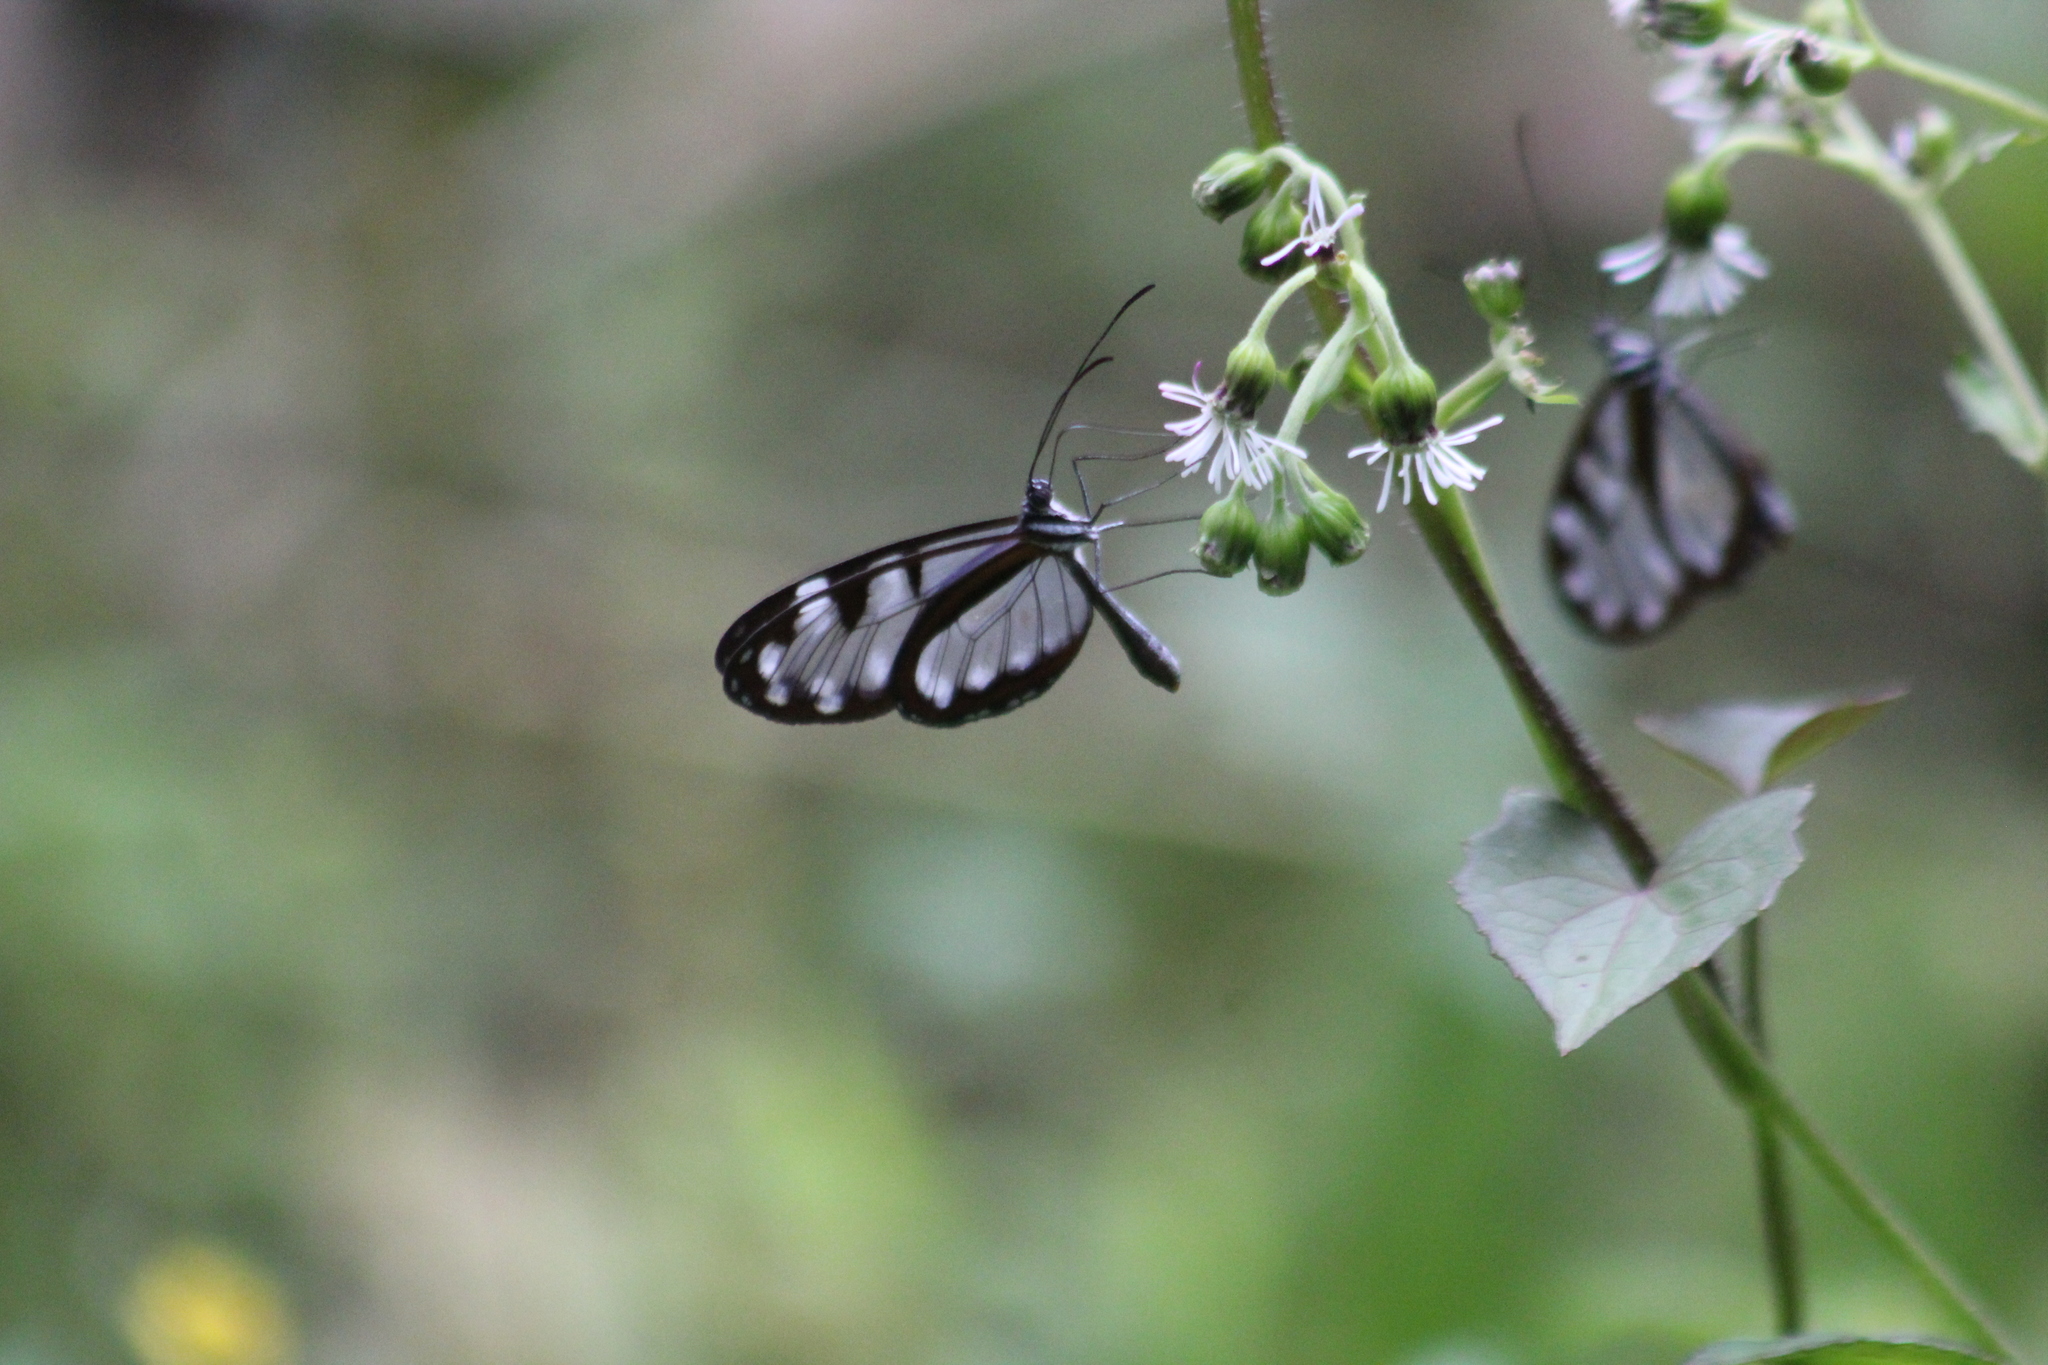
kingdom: Animalia
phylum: Arthropoda
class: Insecta
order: Lepidoptera
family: Nymphalidae
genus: Oleria
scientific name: Oleria santineza
